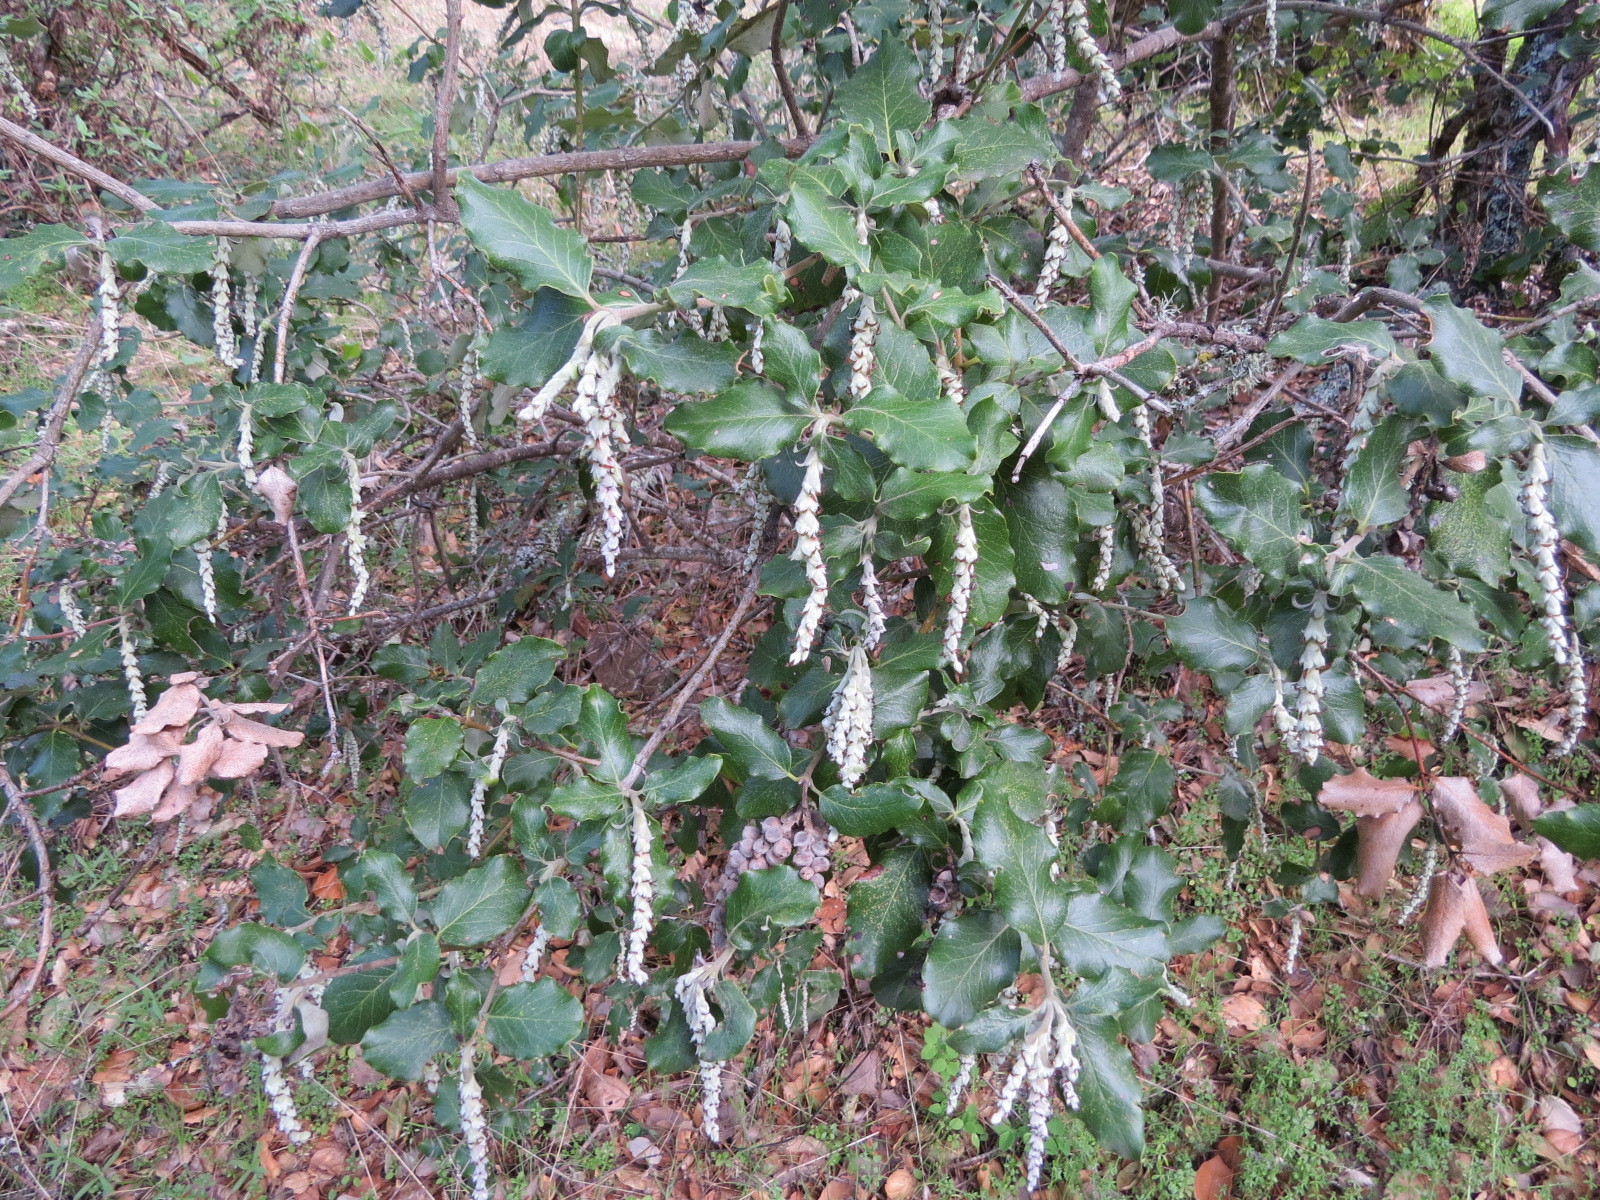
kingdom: Plantae
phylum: Tracheophyta
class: Magnoliopsida
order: Garryales
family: Garryaceae
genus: Garrya
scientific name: Garrya elliptica
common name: Silk-tassel
